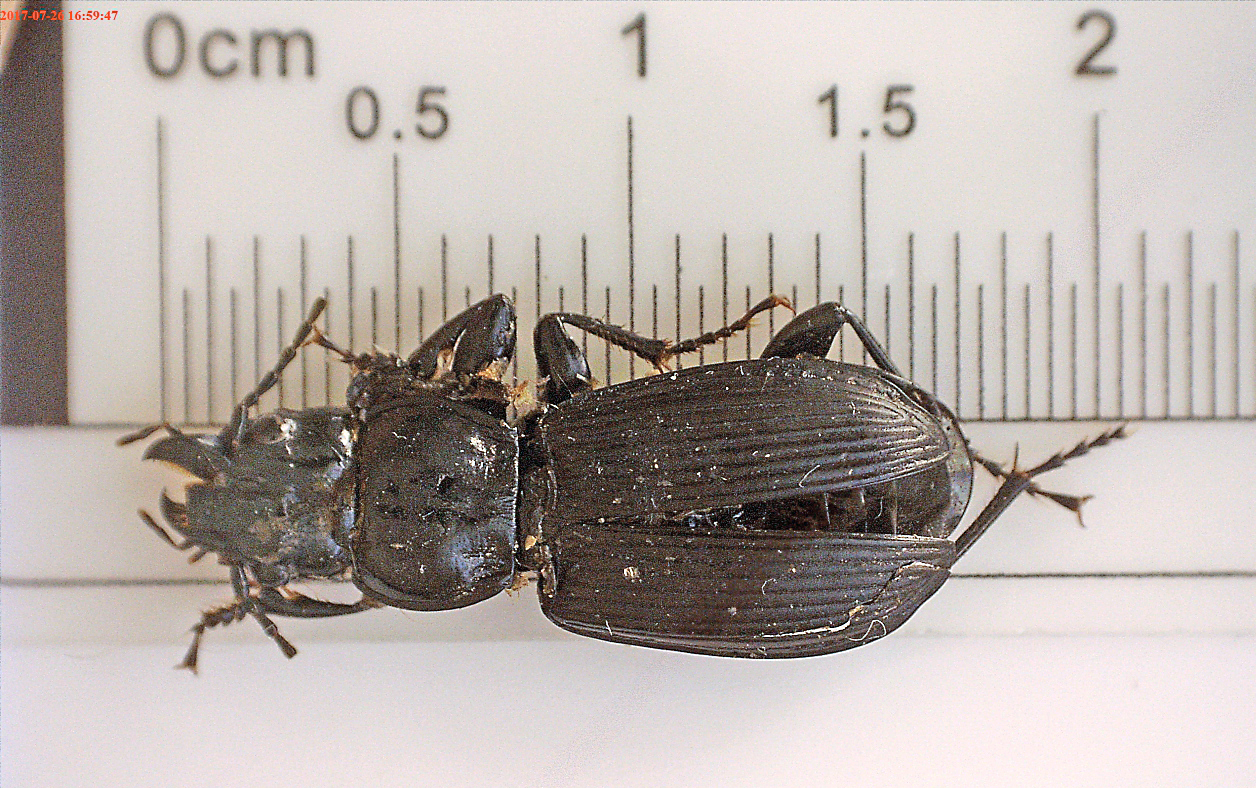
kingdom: Animalia
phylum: Arthropoda
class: Insecta
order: Coleoptera
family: Carabidae
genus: Pterostichus
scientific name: Pterostichus melanarius
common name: European dark harp ground beetle
